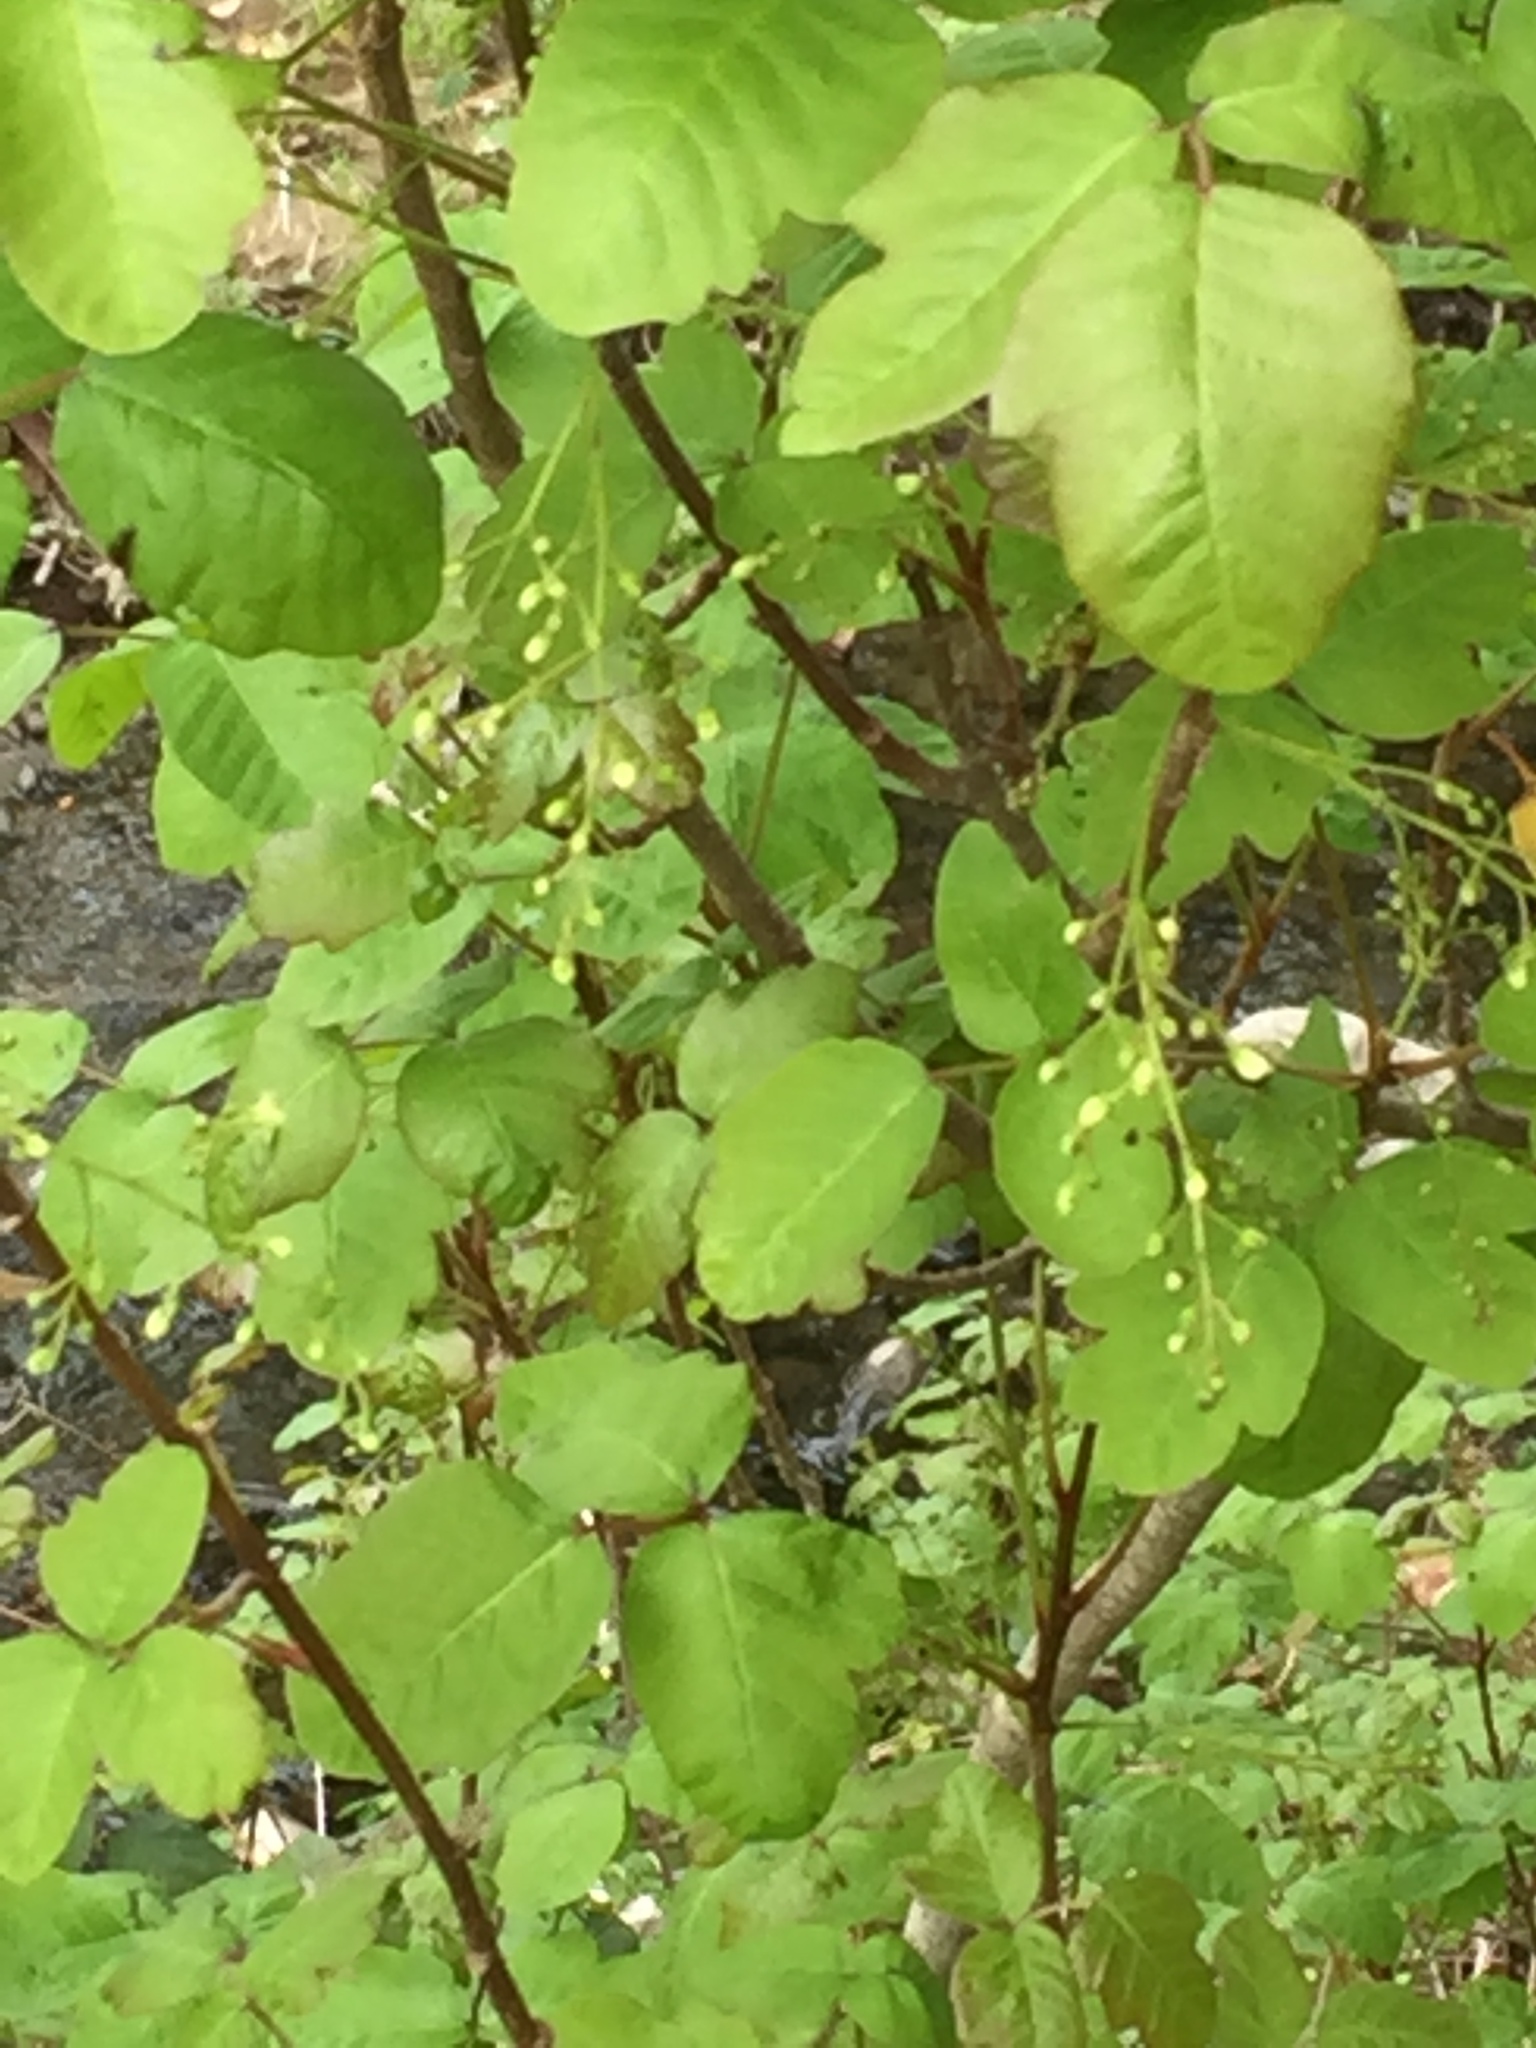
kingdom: Plantae
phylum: Tracheophyta
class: Magnoliopsida
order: Sapindales
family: Anacardiaceae
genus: Toxicodendron
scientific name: Toxicodendron diversilobum
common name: Pacific poison-oak
